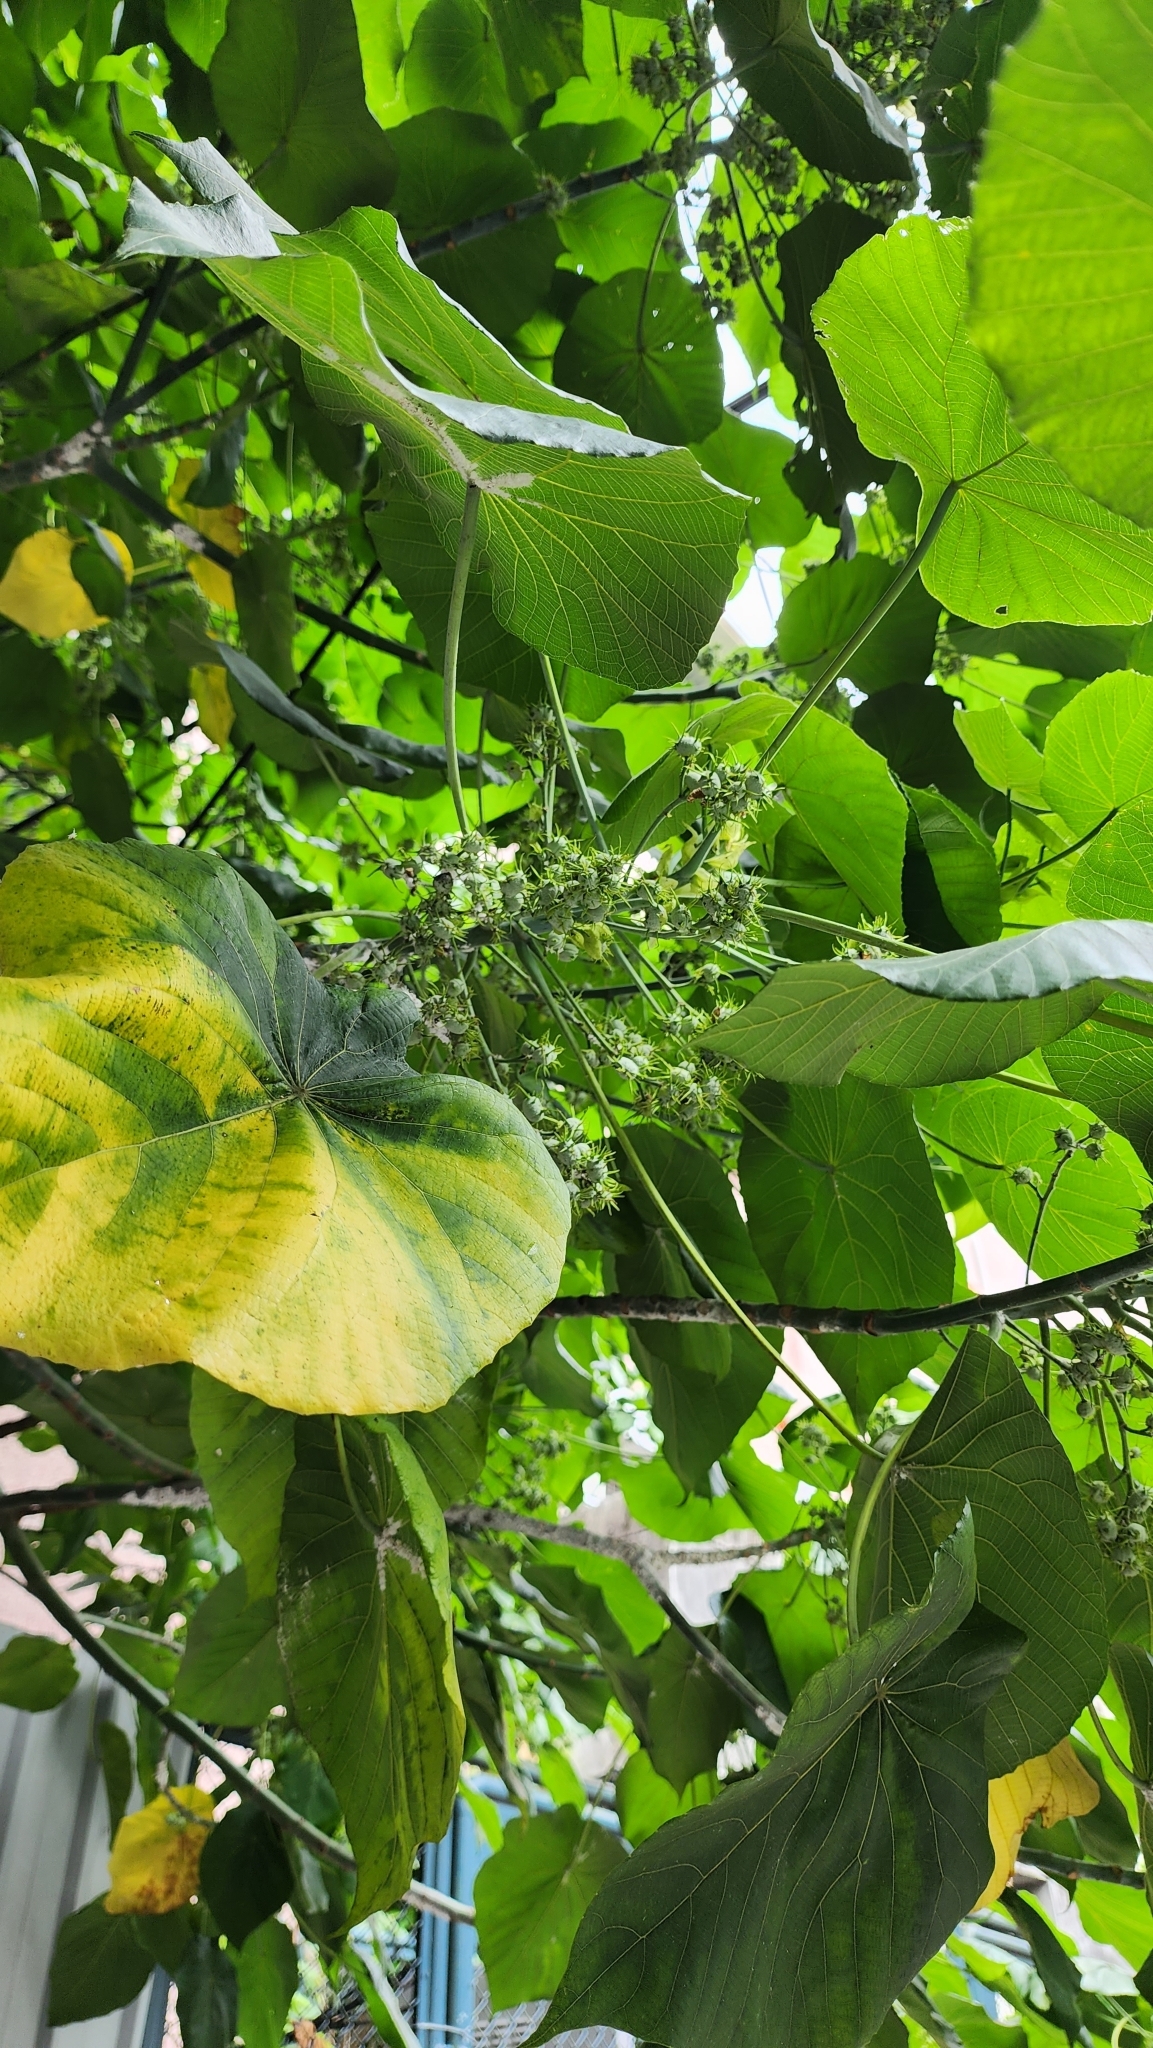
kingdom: Plantae
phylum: Tracheophyta
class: Magnoliopsida
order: Malpighiales
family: Euphorbiaceae
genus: Macaranga
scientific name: Macaranga tanarius
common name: Parasol leaf tree
